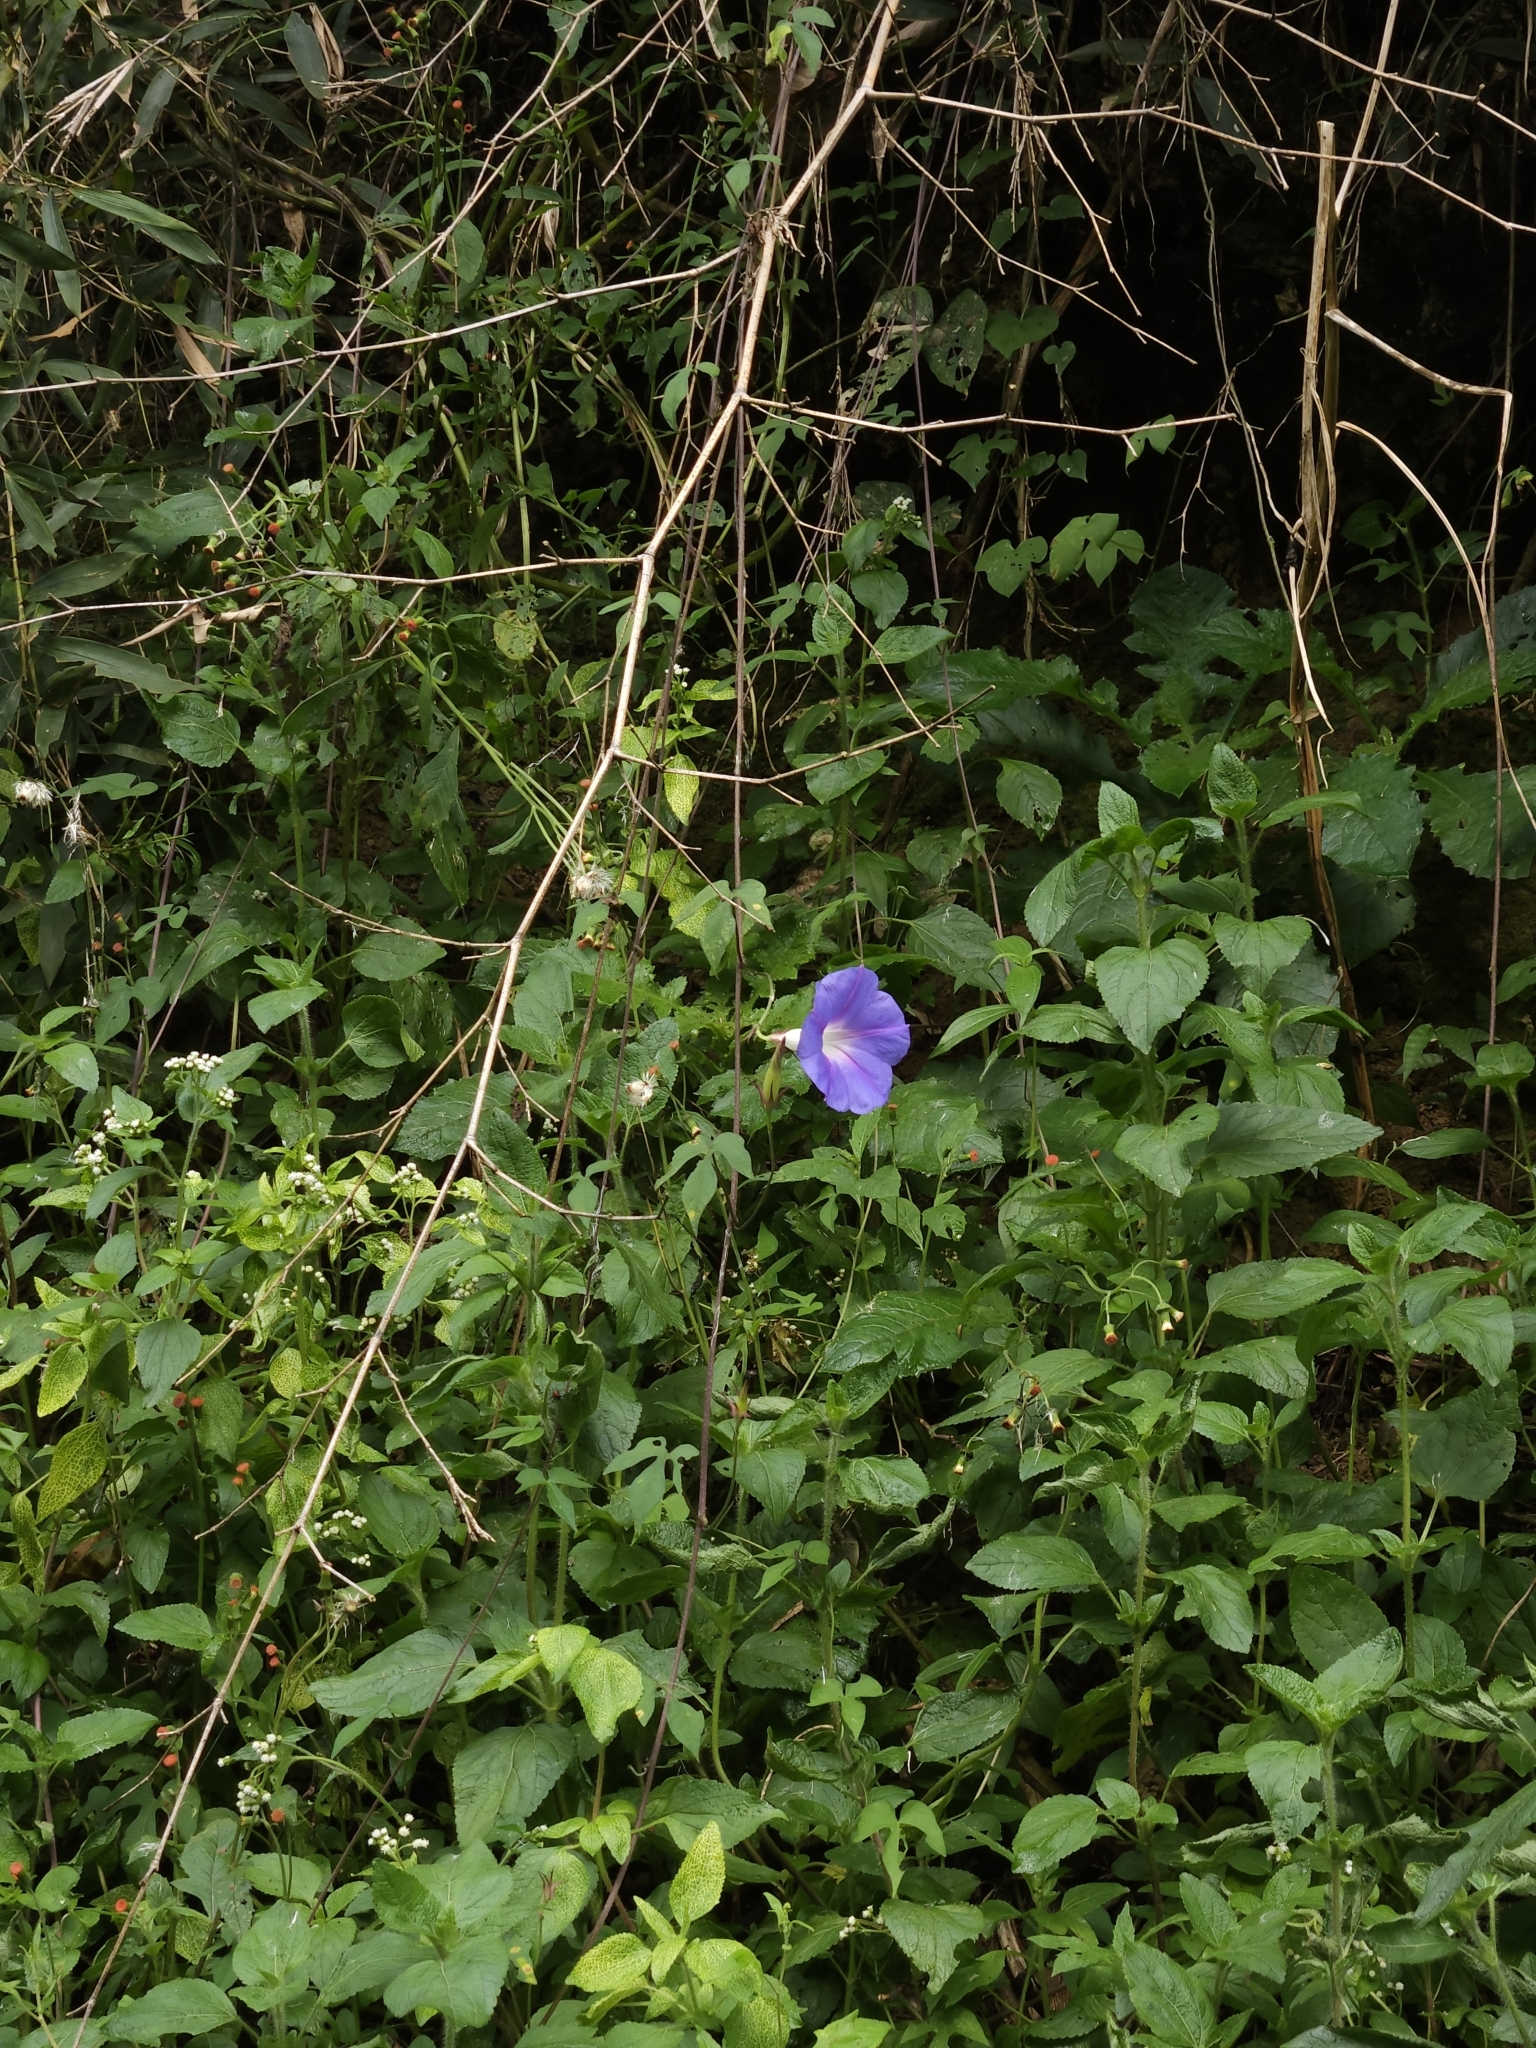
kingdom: Plantae
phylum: Tracheophyta
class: Magnoliopsida
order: Solanales
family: Convolvulaceae
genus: Ipomoea
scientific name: Ipomoea indica
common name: Blue dawnflower
